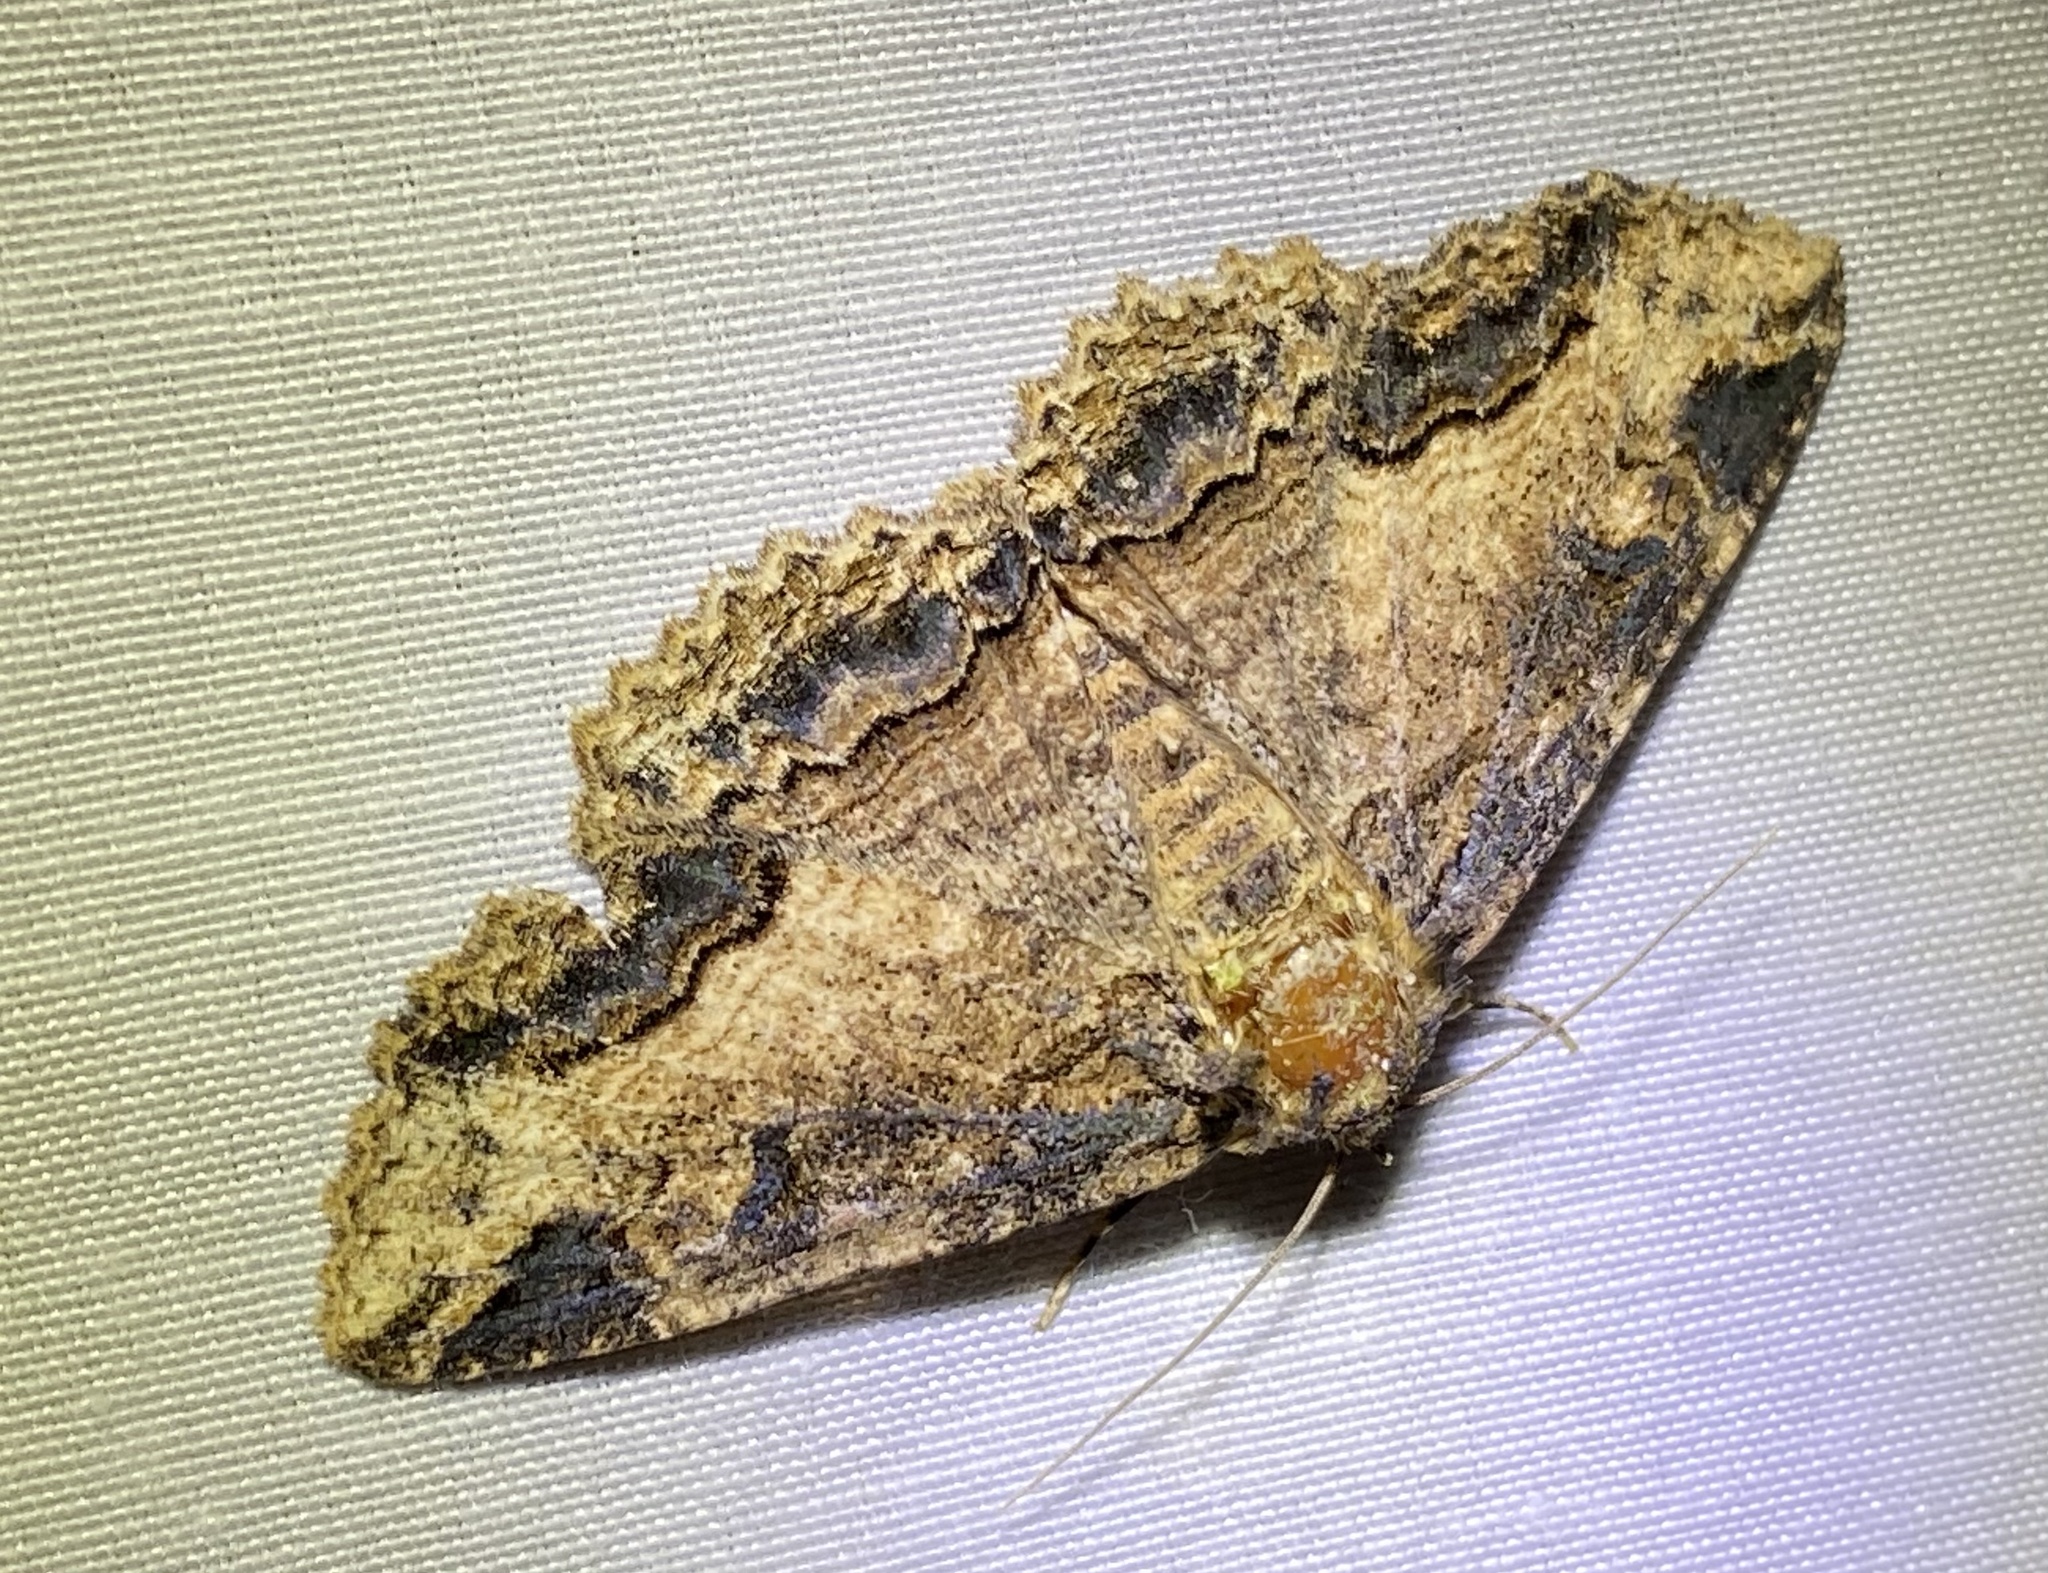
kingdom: Animalia
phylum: Arthropoda
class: Insecta
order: Lepidoptera
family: Erebidae
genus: Zale
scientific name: Zale minerea
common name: Colorful zale moth
